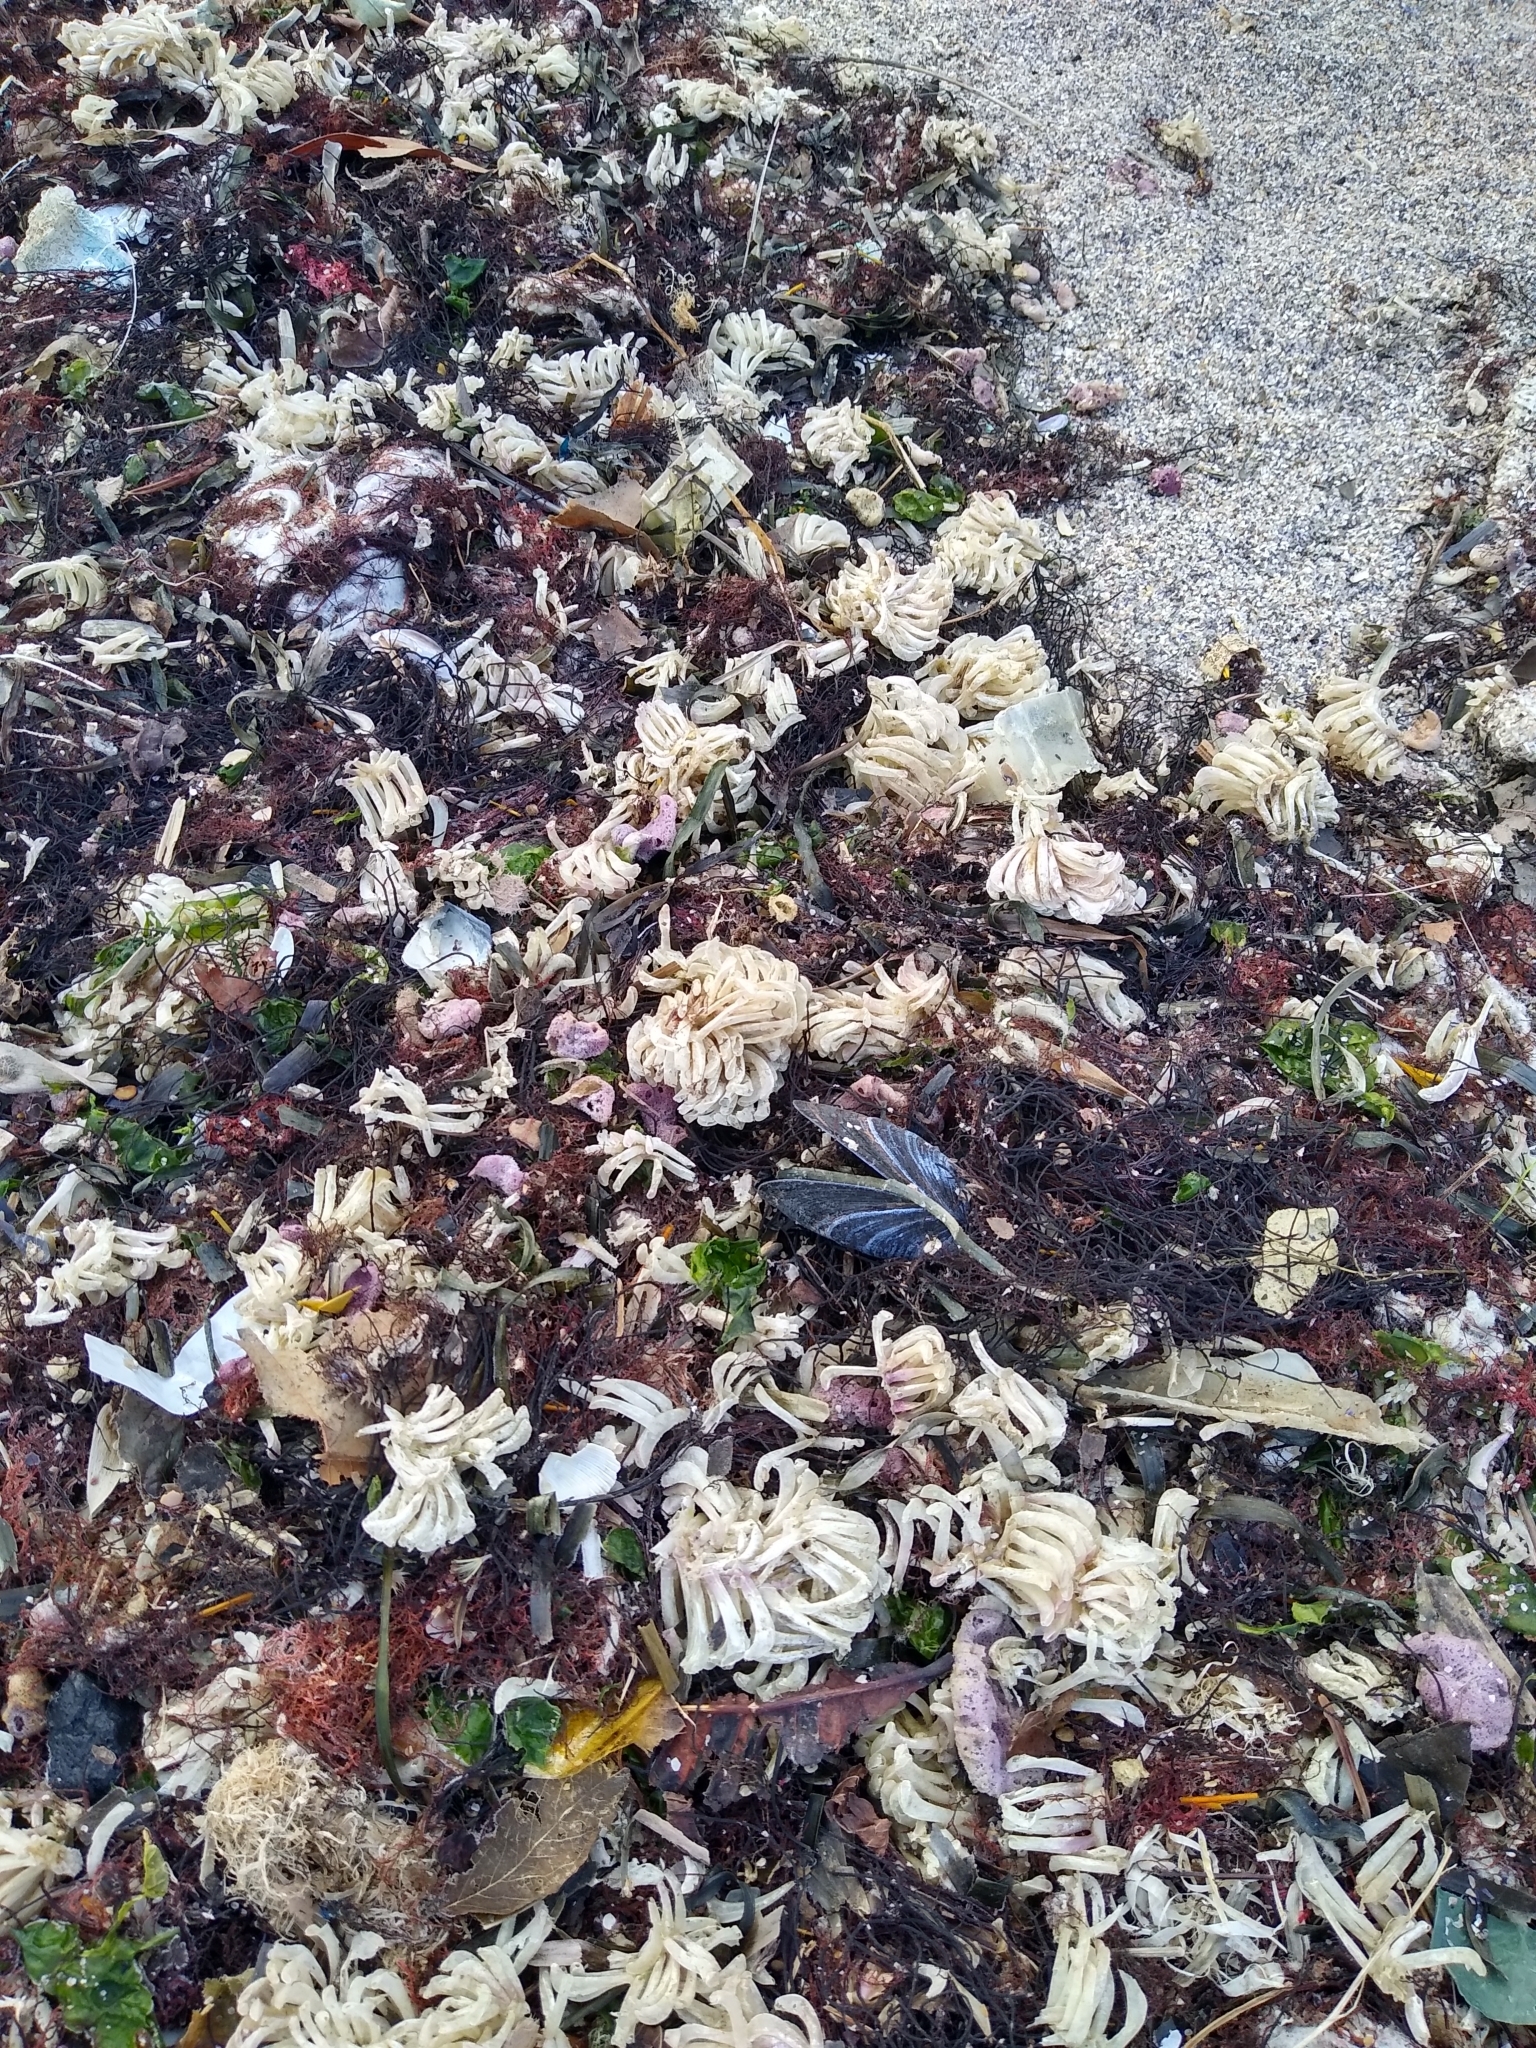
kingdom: Animalia
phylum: Mollusca
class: Gastropoda
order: Neogastropoda
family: Muricidae
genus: Rapana
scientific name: Rapana venosa
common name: Veined rapa whelk
